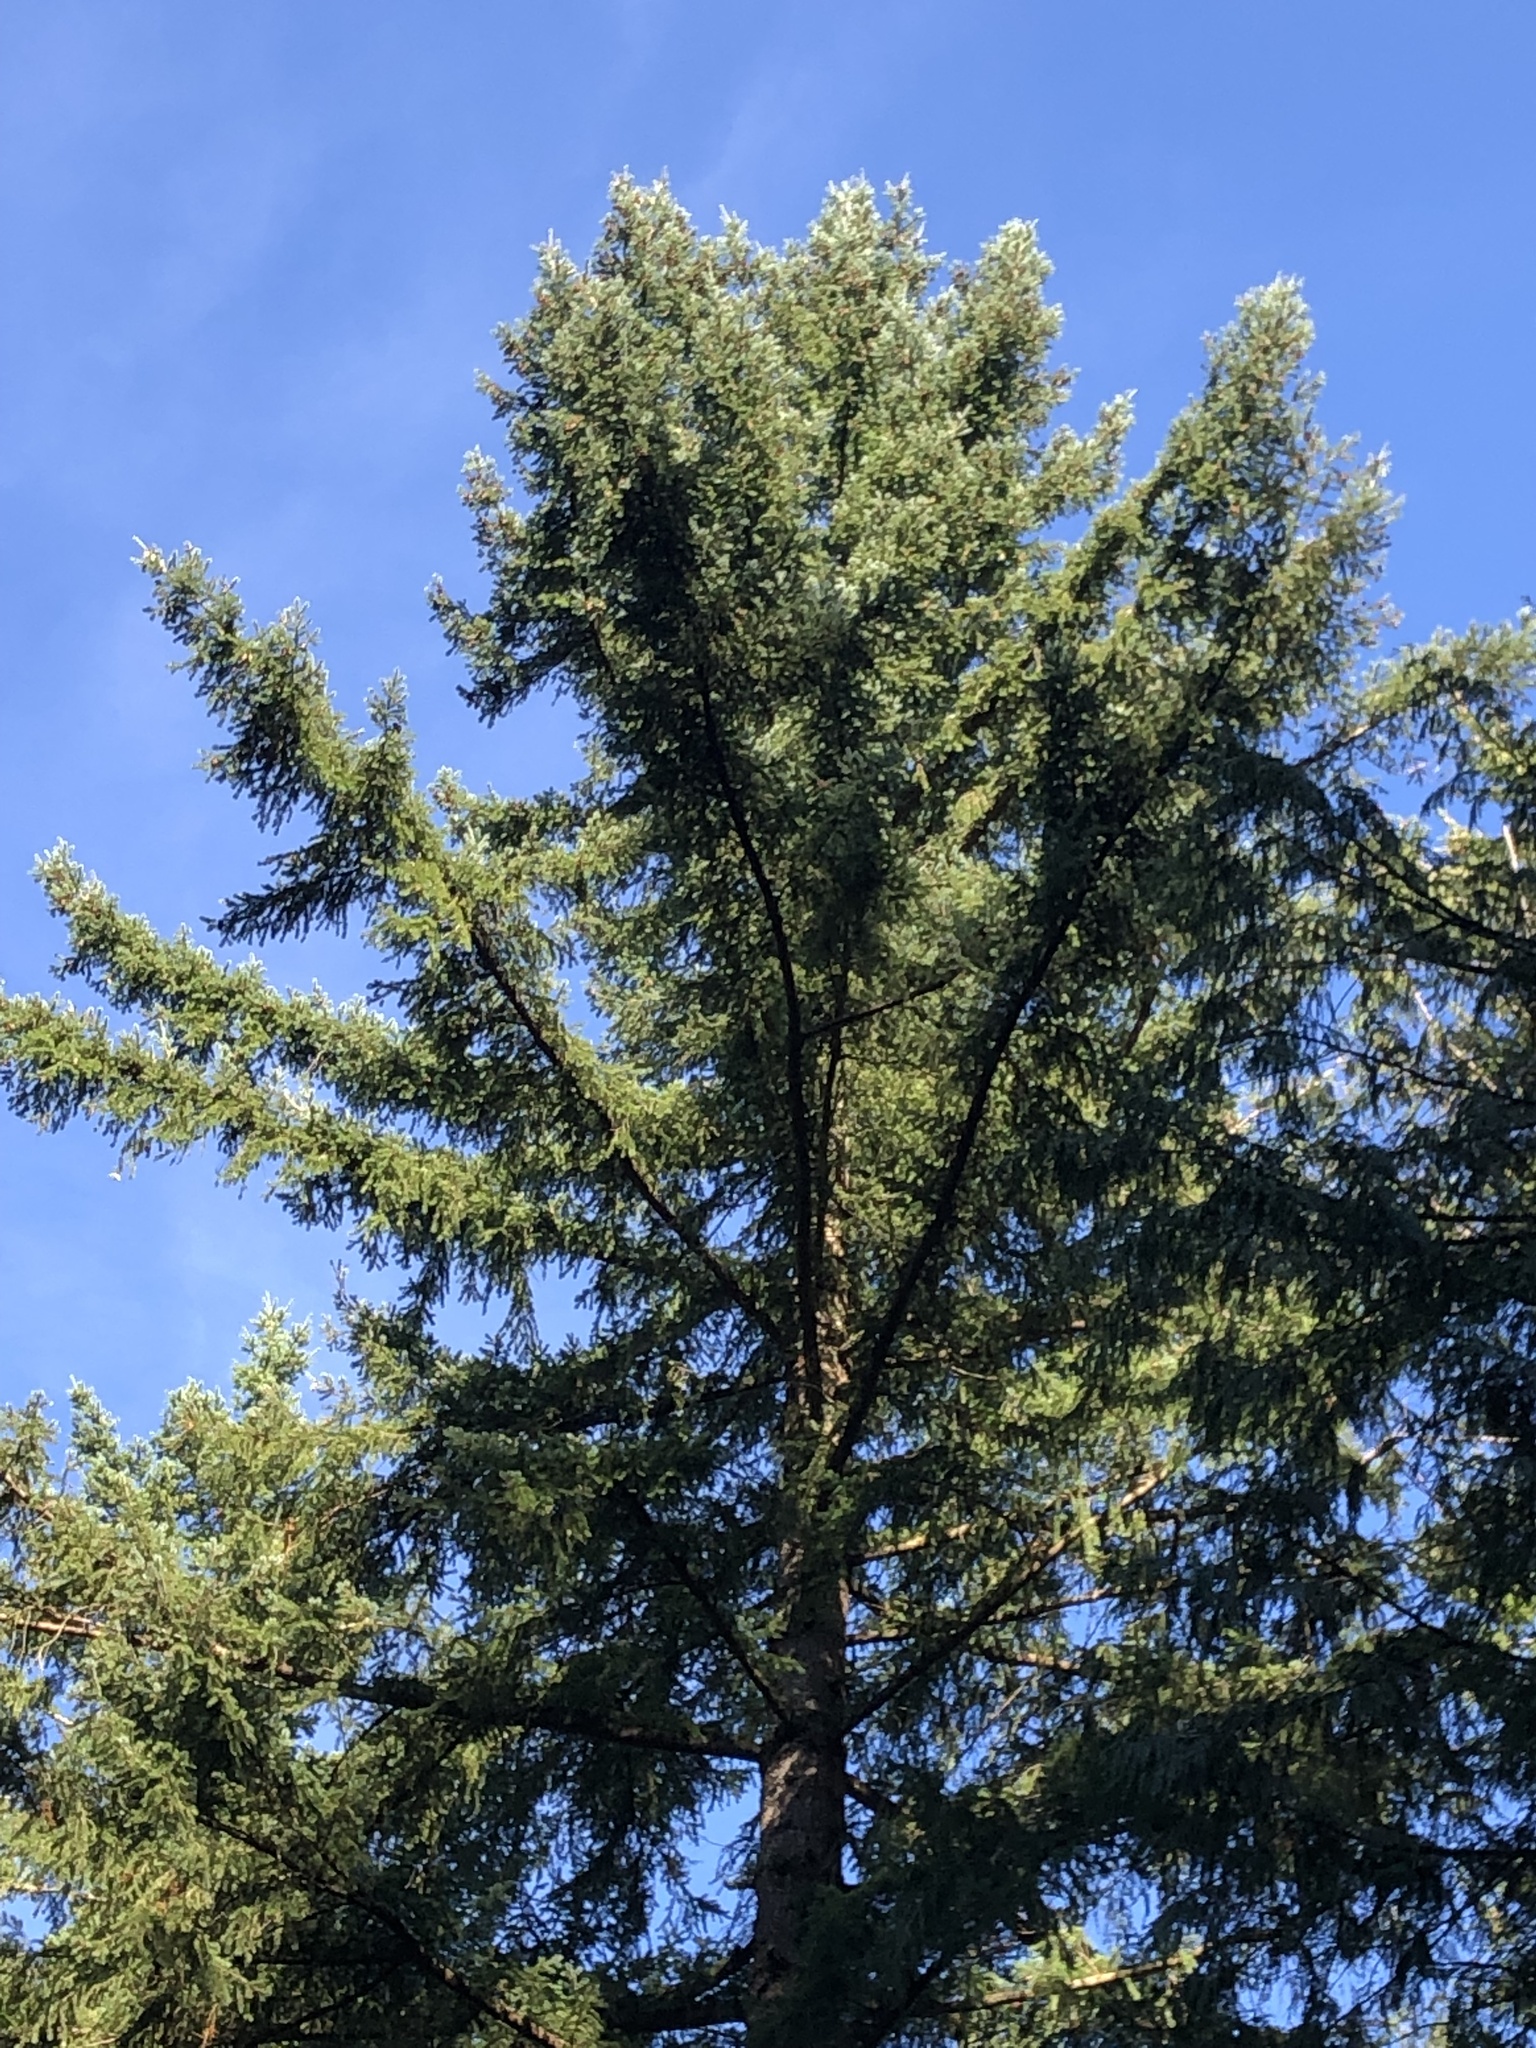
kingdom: Plantae
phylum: Tracheophyta
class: Pinopsida
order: Pinales
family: Pinaceae
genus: Pseudotsuga
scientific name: Pseudotsuga menziesii
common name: Douglas fir
